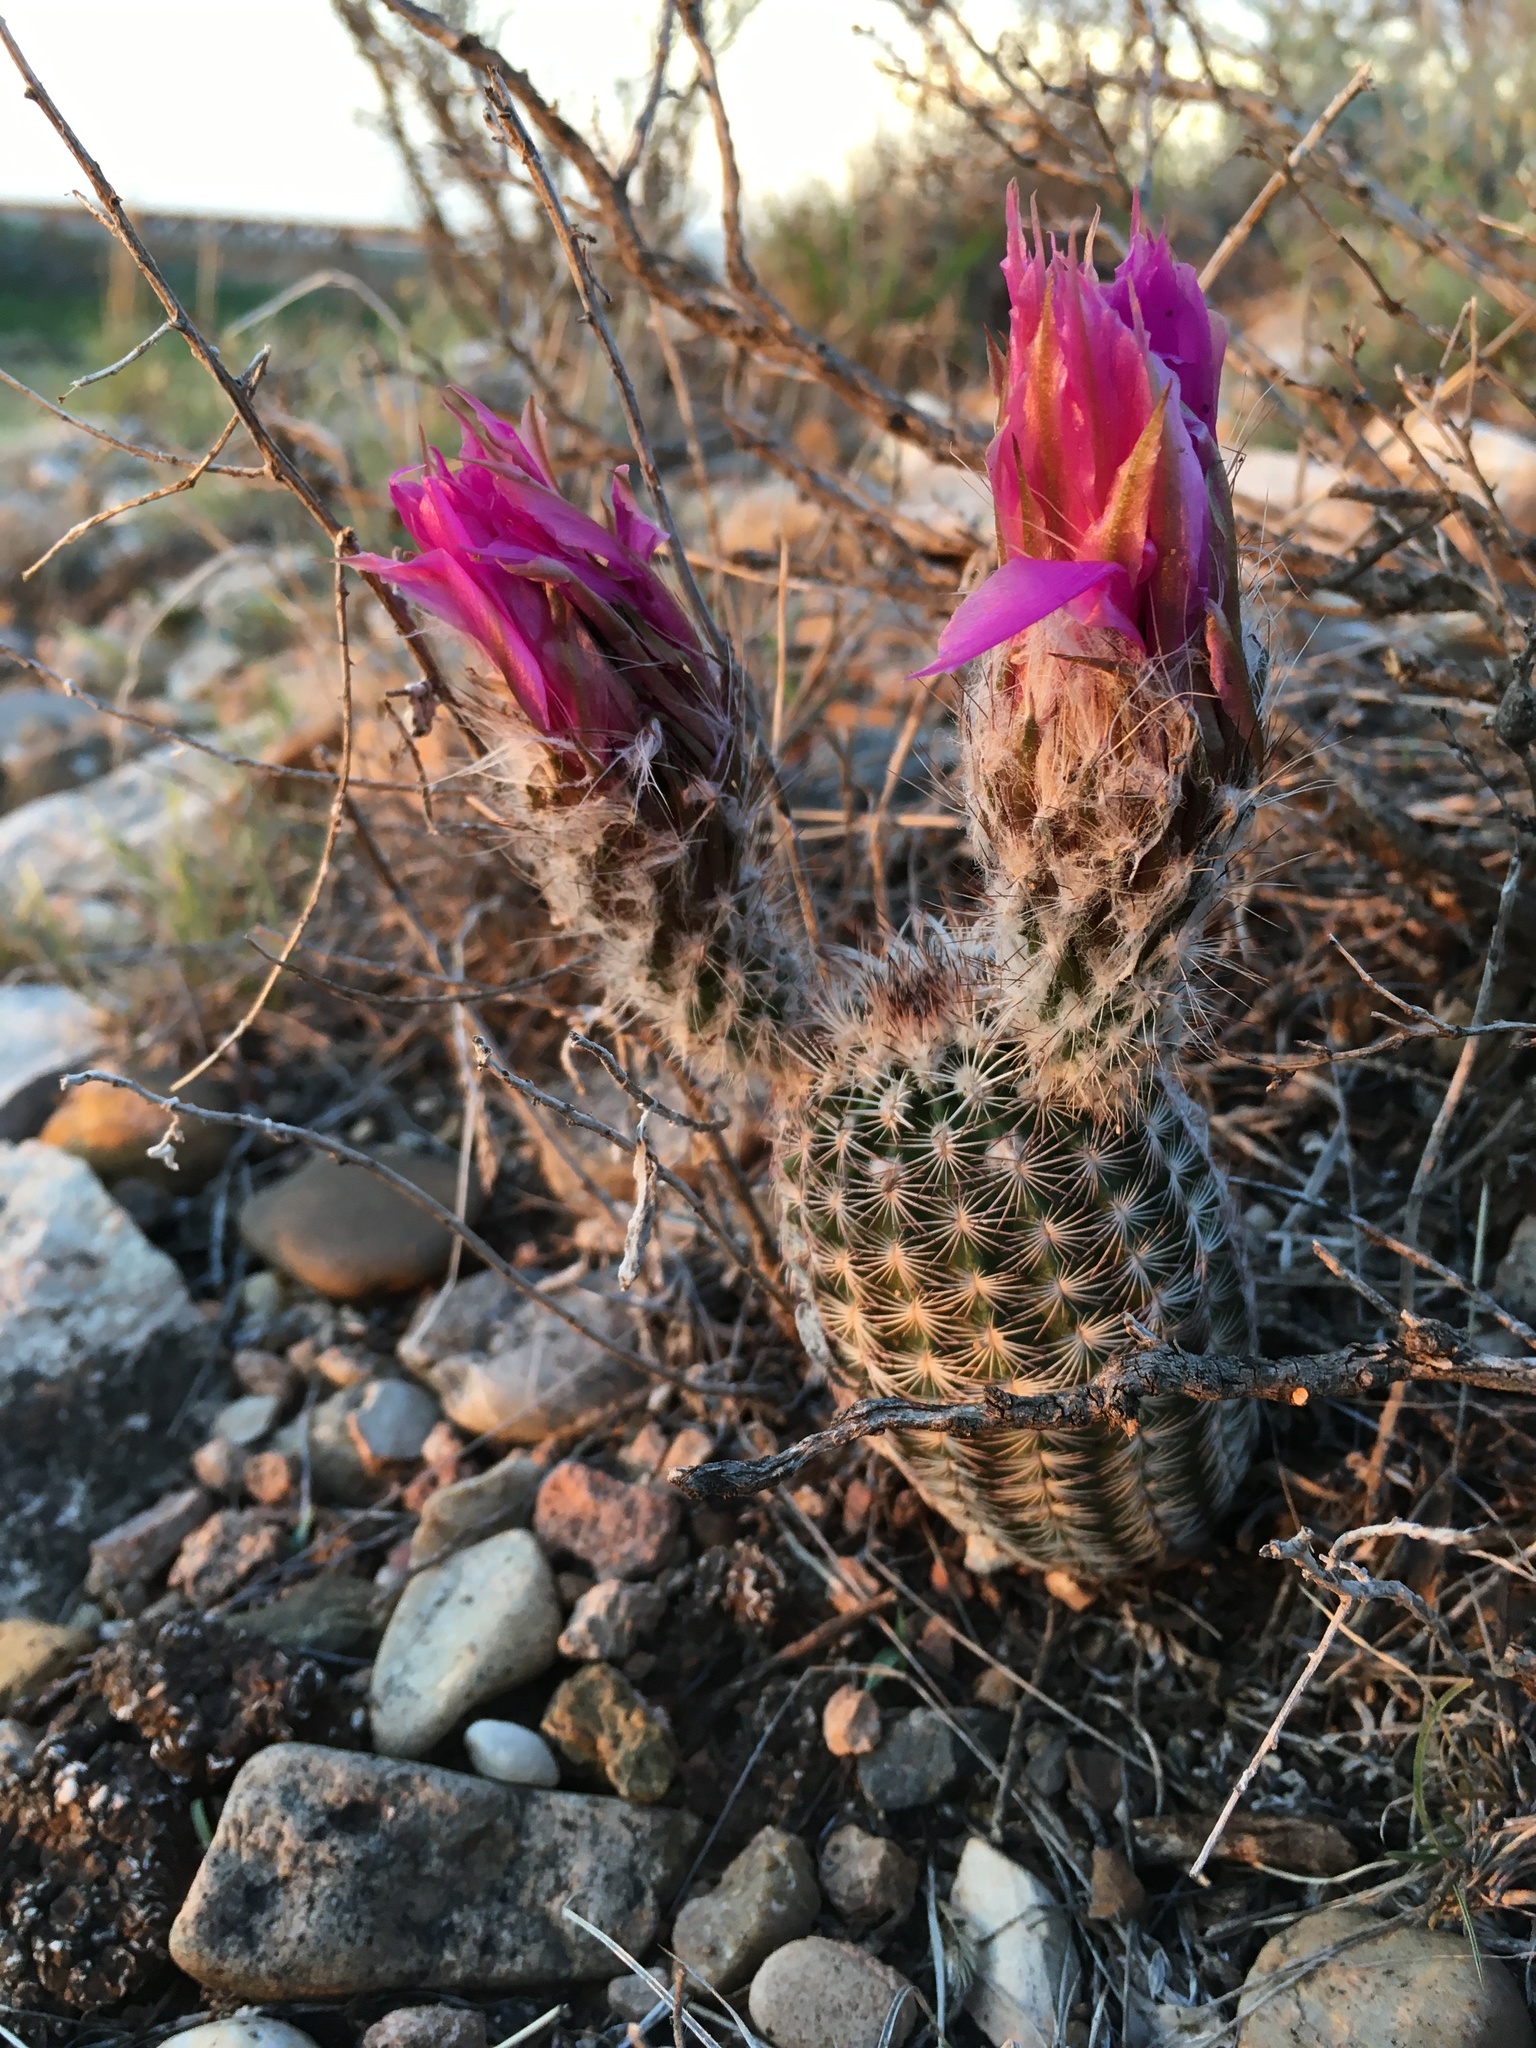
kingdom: Plantae
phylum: Tracheophyta
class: Magnoliopsida
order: Caryophyllales
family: Cactaceae
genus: Echinocereus
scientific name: Echinocereus reichenbachii
